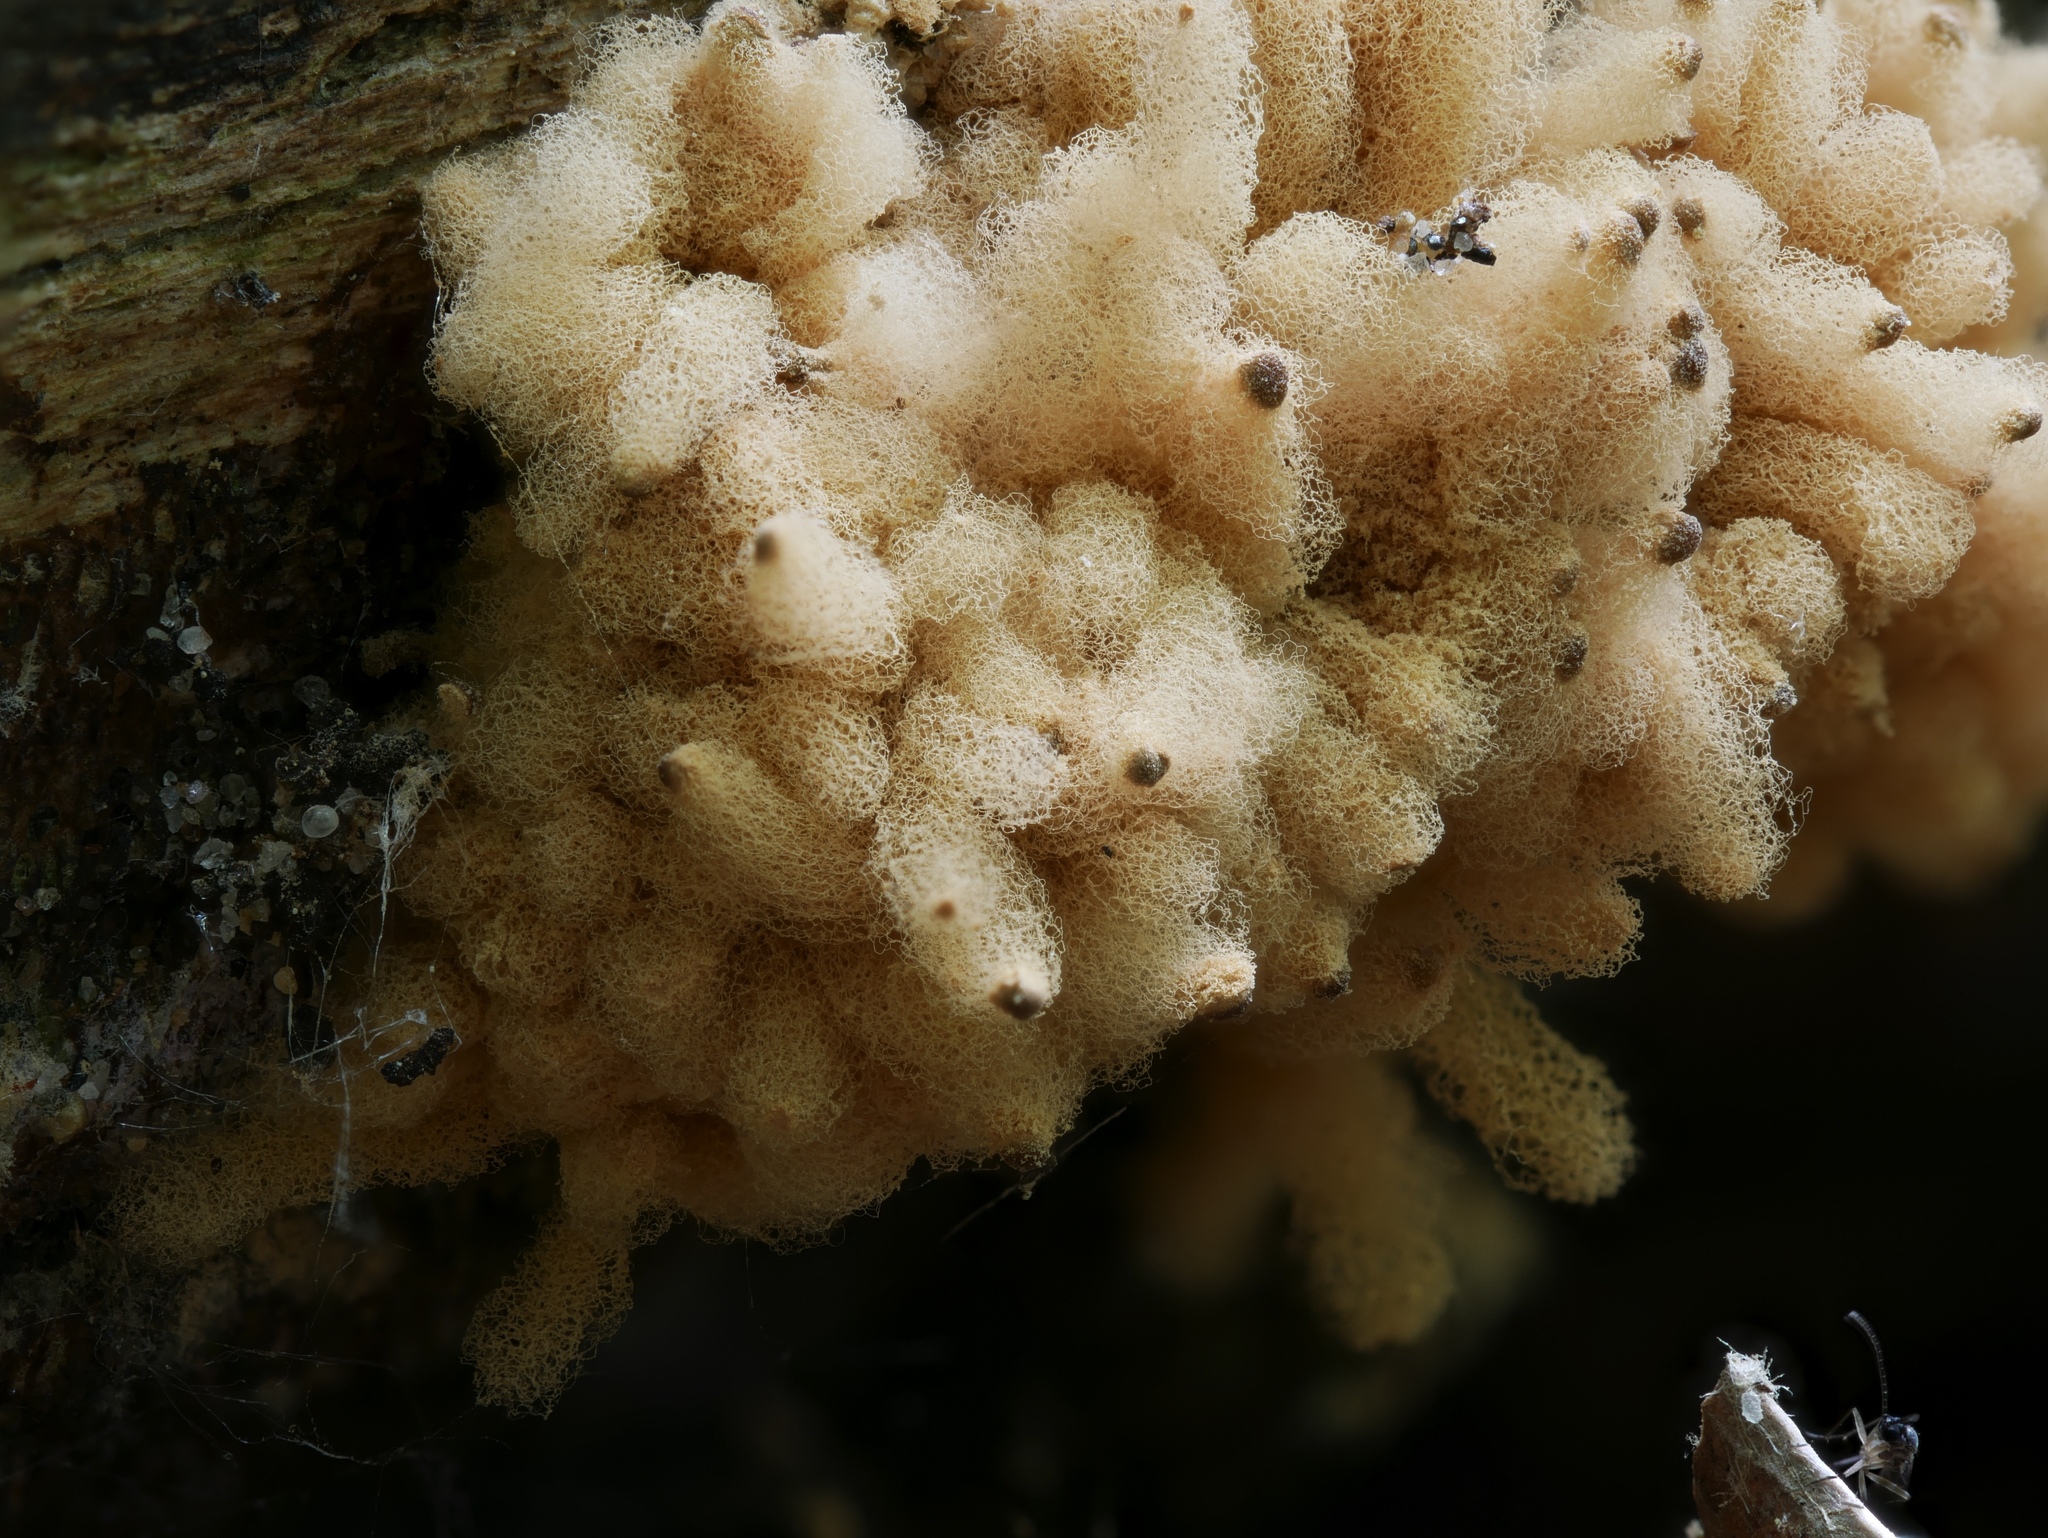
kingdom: Protozoa
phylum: Mycetozoa
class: Myxomycetes
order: Trichiales
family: Arcyriaceae
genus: Arcyria
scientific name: Arcyria obvelata
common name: Yellow carnival candy slime
